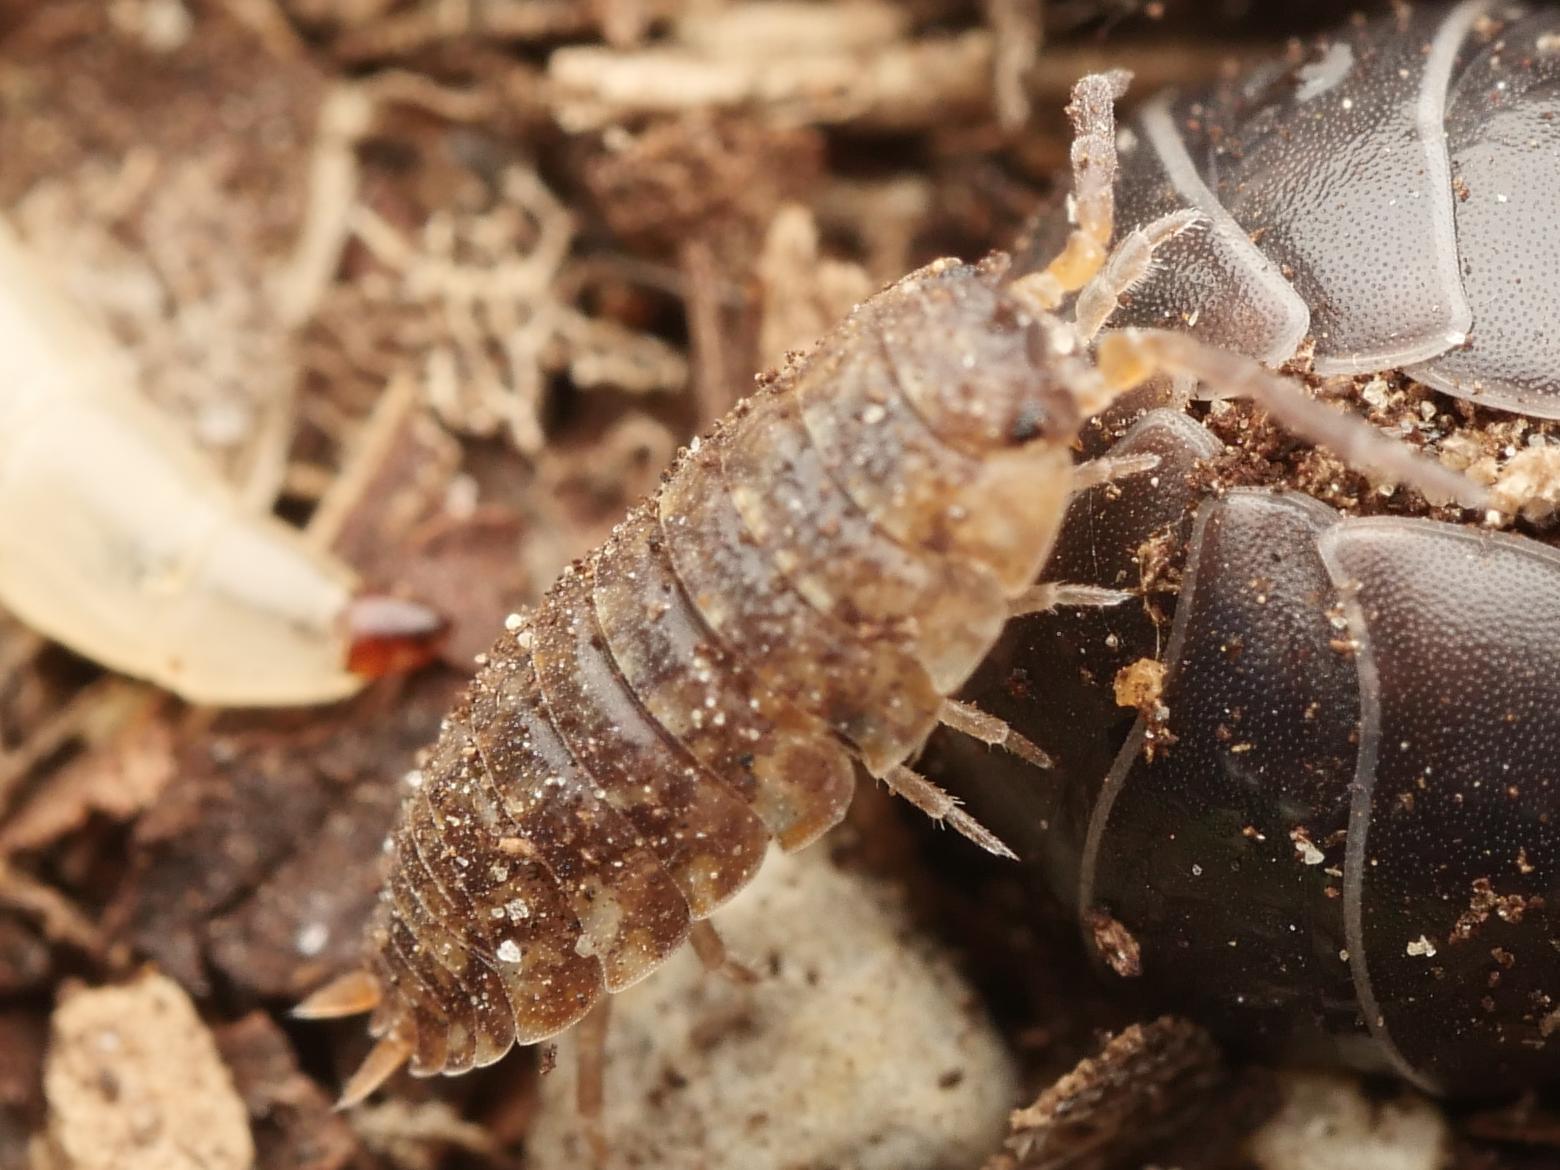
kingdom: Animalia
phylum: Arthropoda
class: Malacostraca
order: Isopoda
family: Porcellionidae
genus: Porcellio
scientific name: Porcellio scaber
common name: Common rough woodlouse
